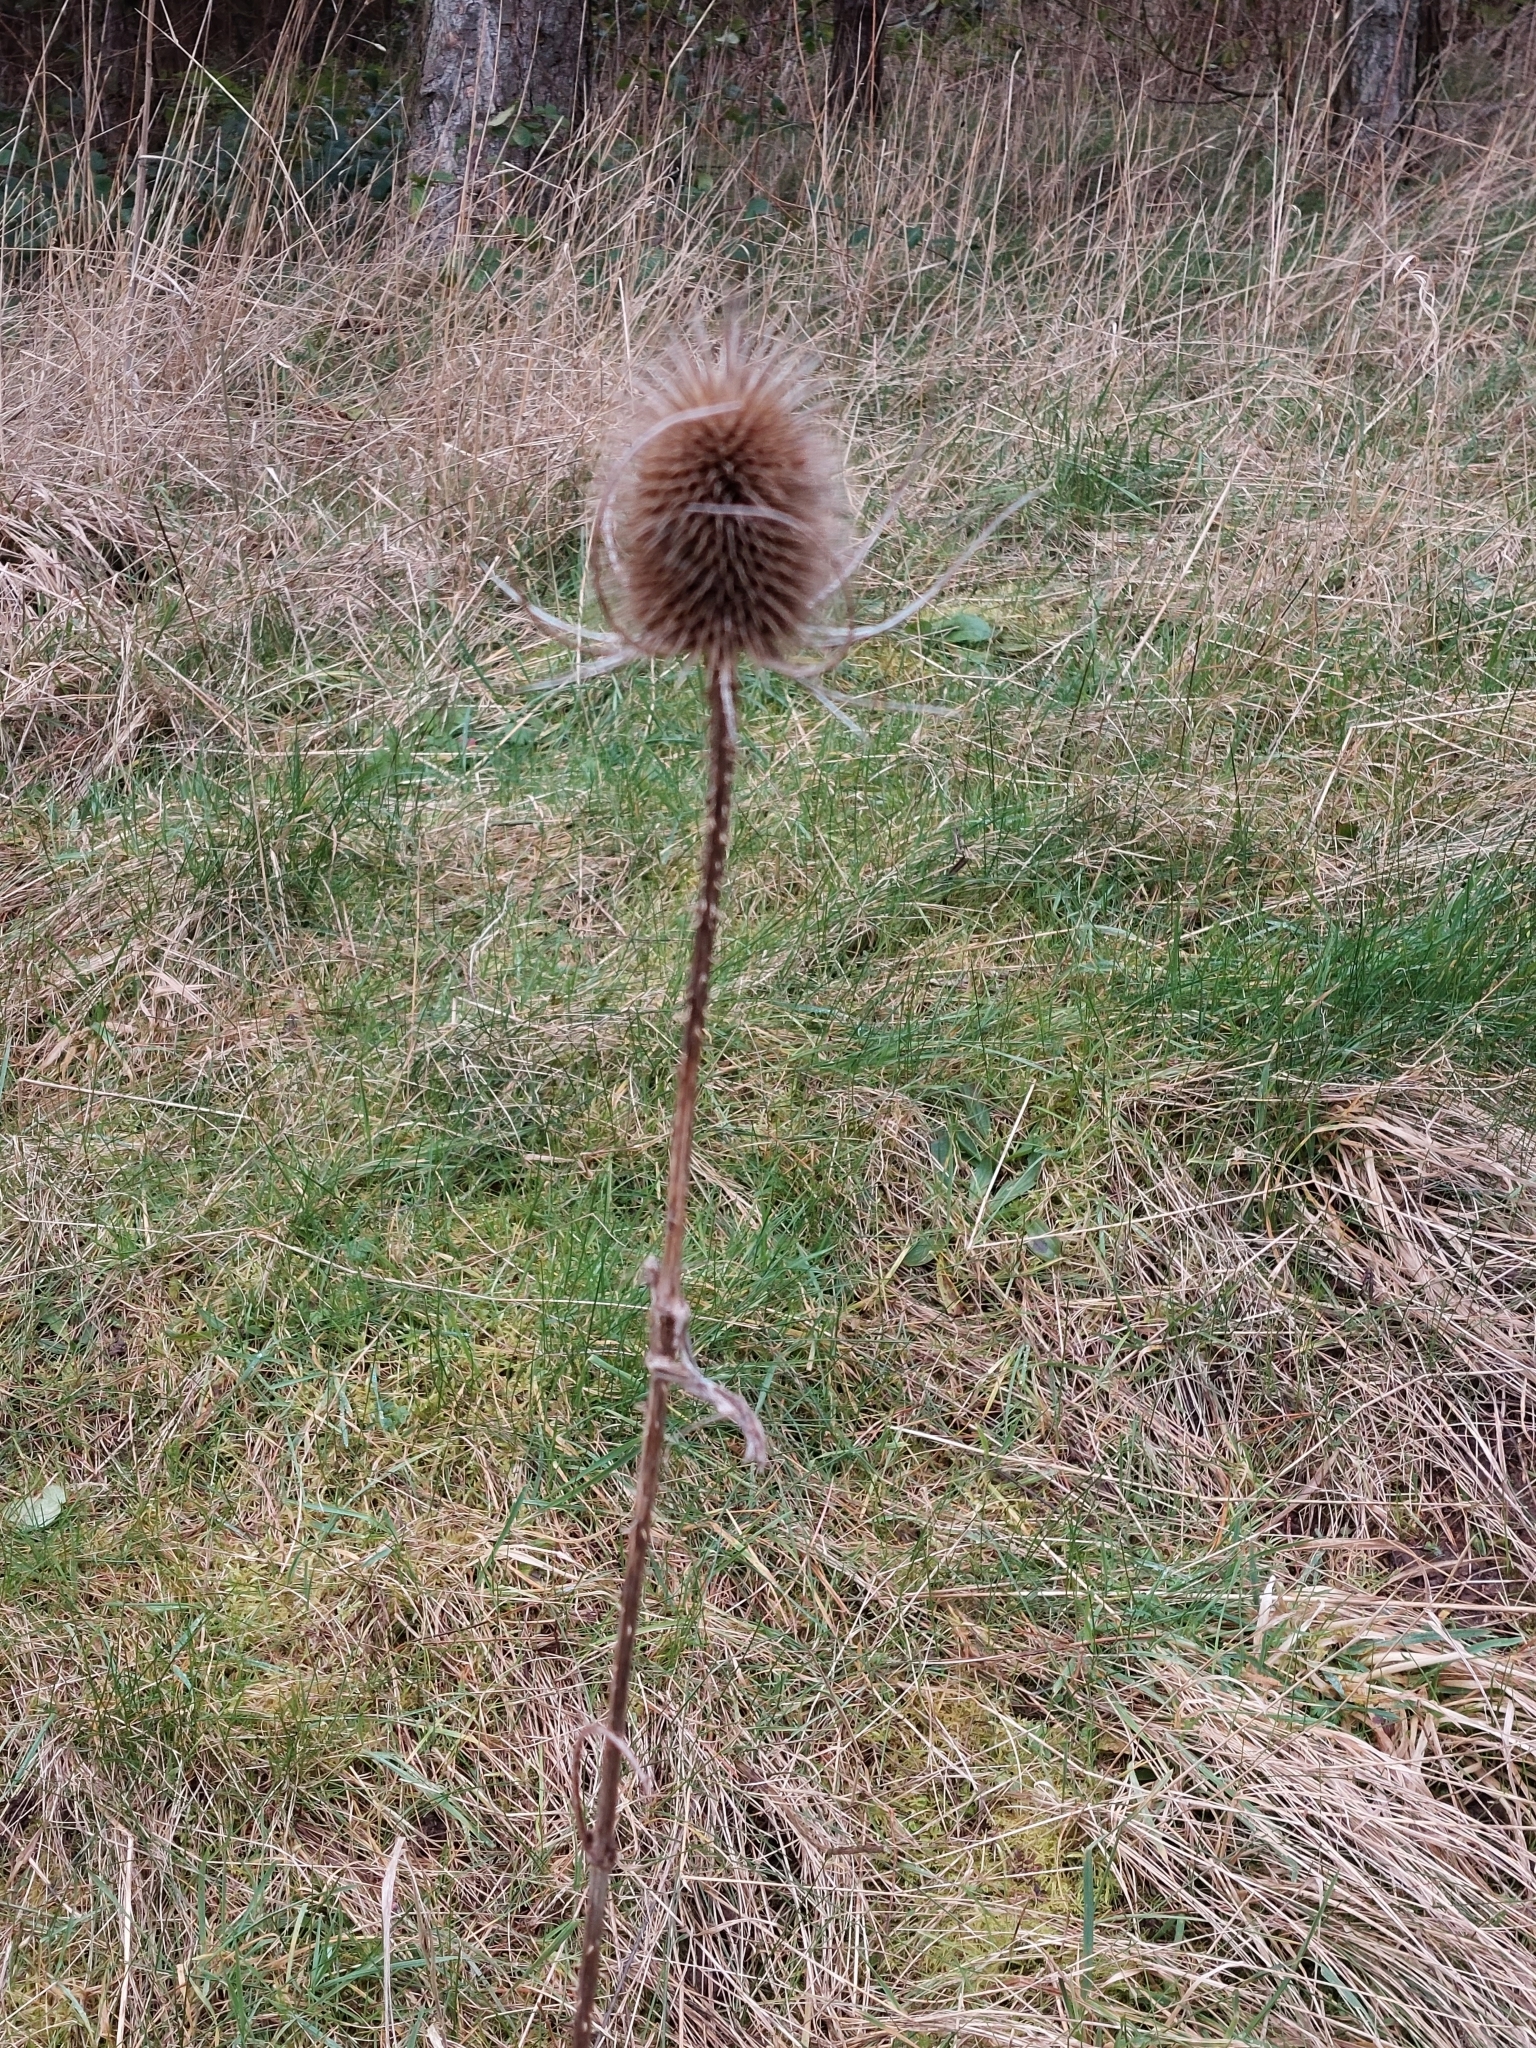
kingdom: Plantae
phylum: Tracheophyta
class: Magnoliopsida
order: Dipsacales
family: Caprifoliaceae
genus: Dipsacus
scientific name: Dipsacus fullonum
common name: Teasel
